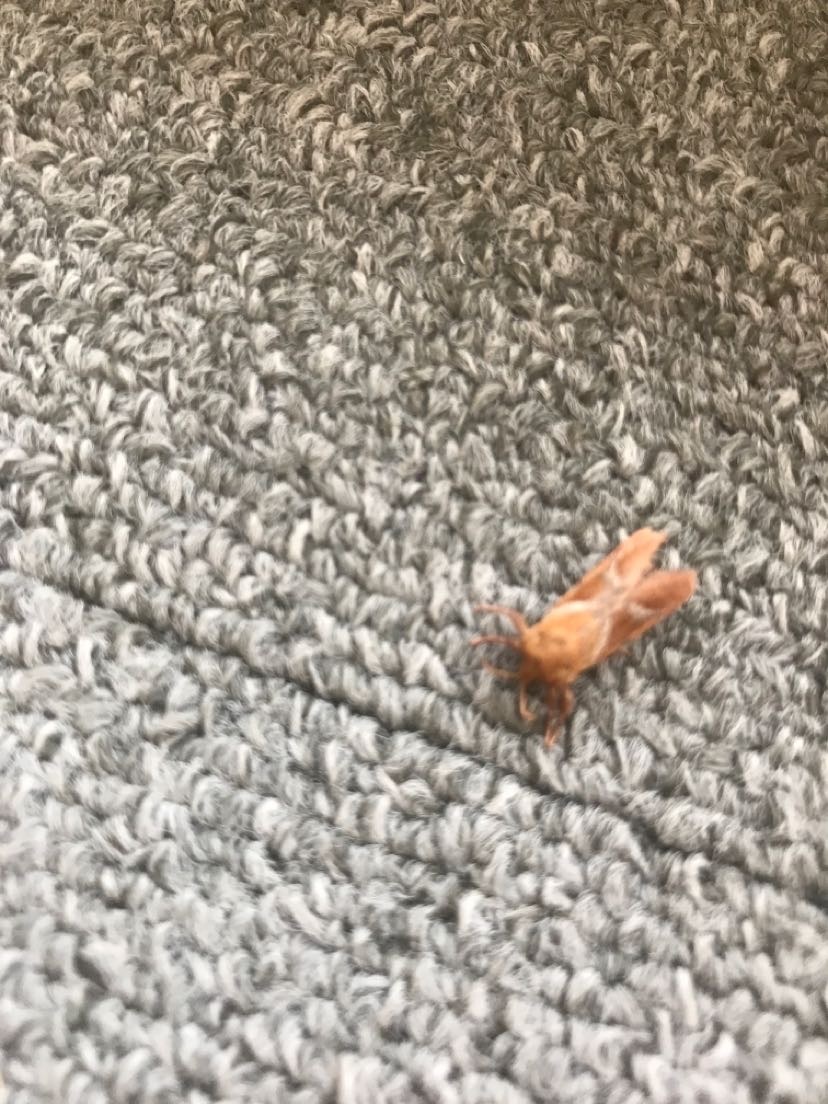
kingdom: Animalia
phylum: Arthropoda
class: Insecta
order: Lepidoptera
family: Hepialidae
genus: Triodia
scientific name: Triodia sylvina
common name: Orange swift
